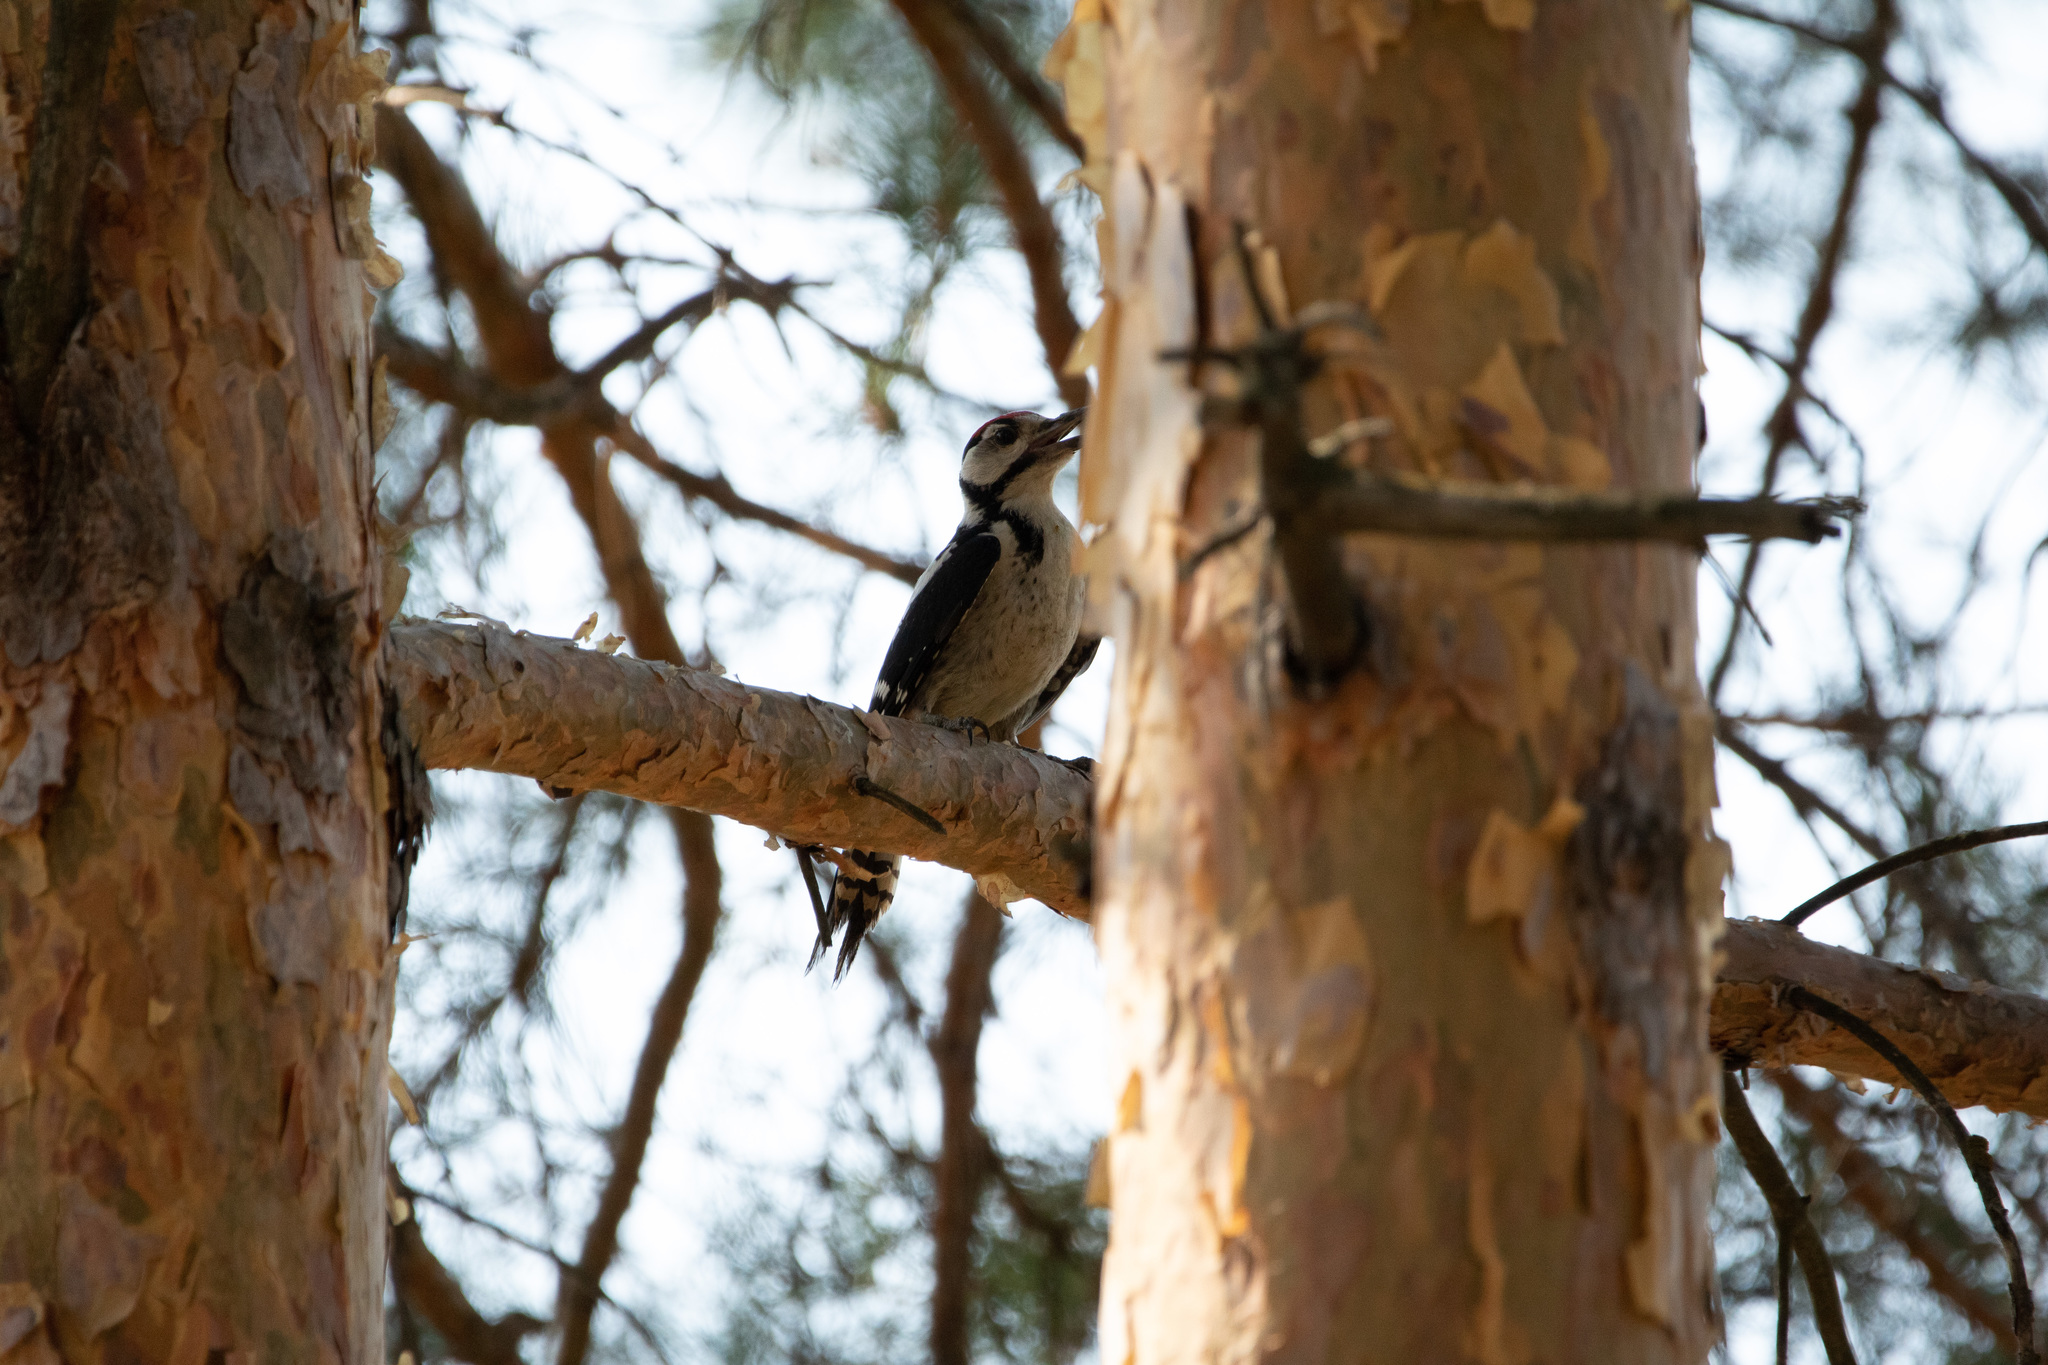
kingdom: Animalia
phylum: Chordata
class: Aves
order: Piciformes
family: Picidae
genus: Dendrocopos
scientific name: Dendrocopos major
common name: Great spotted woodpecker
